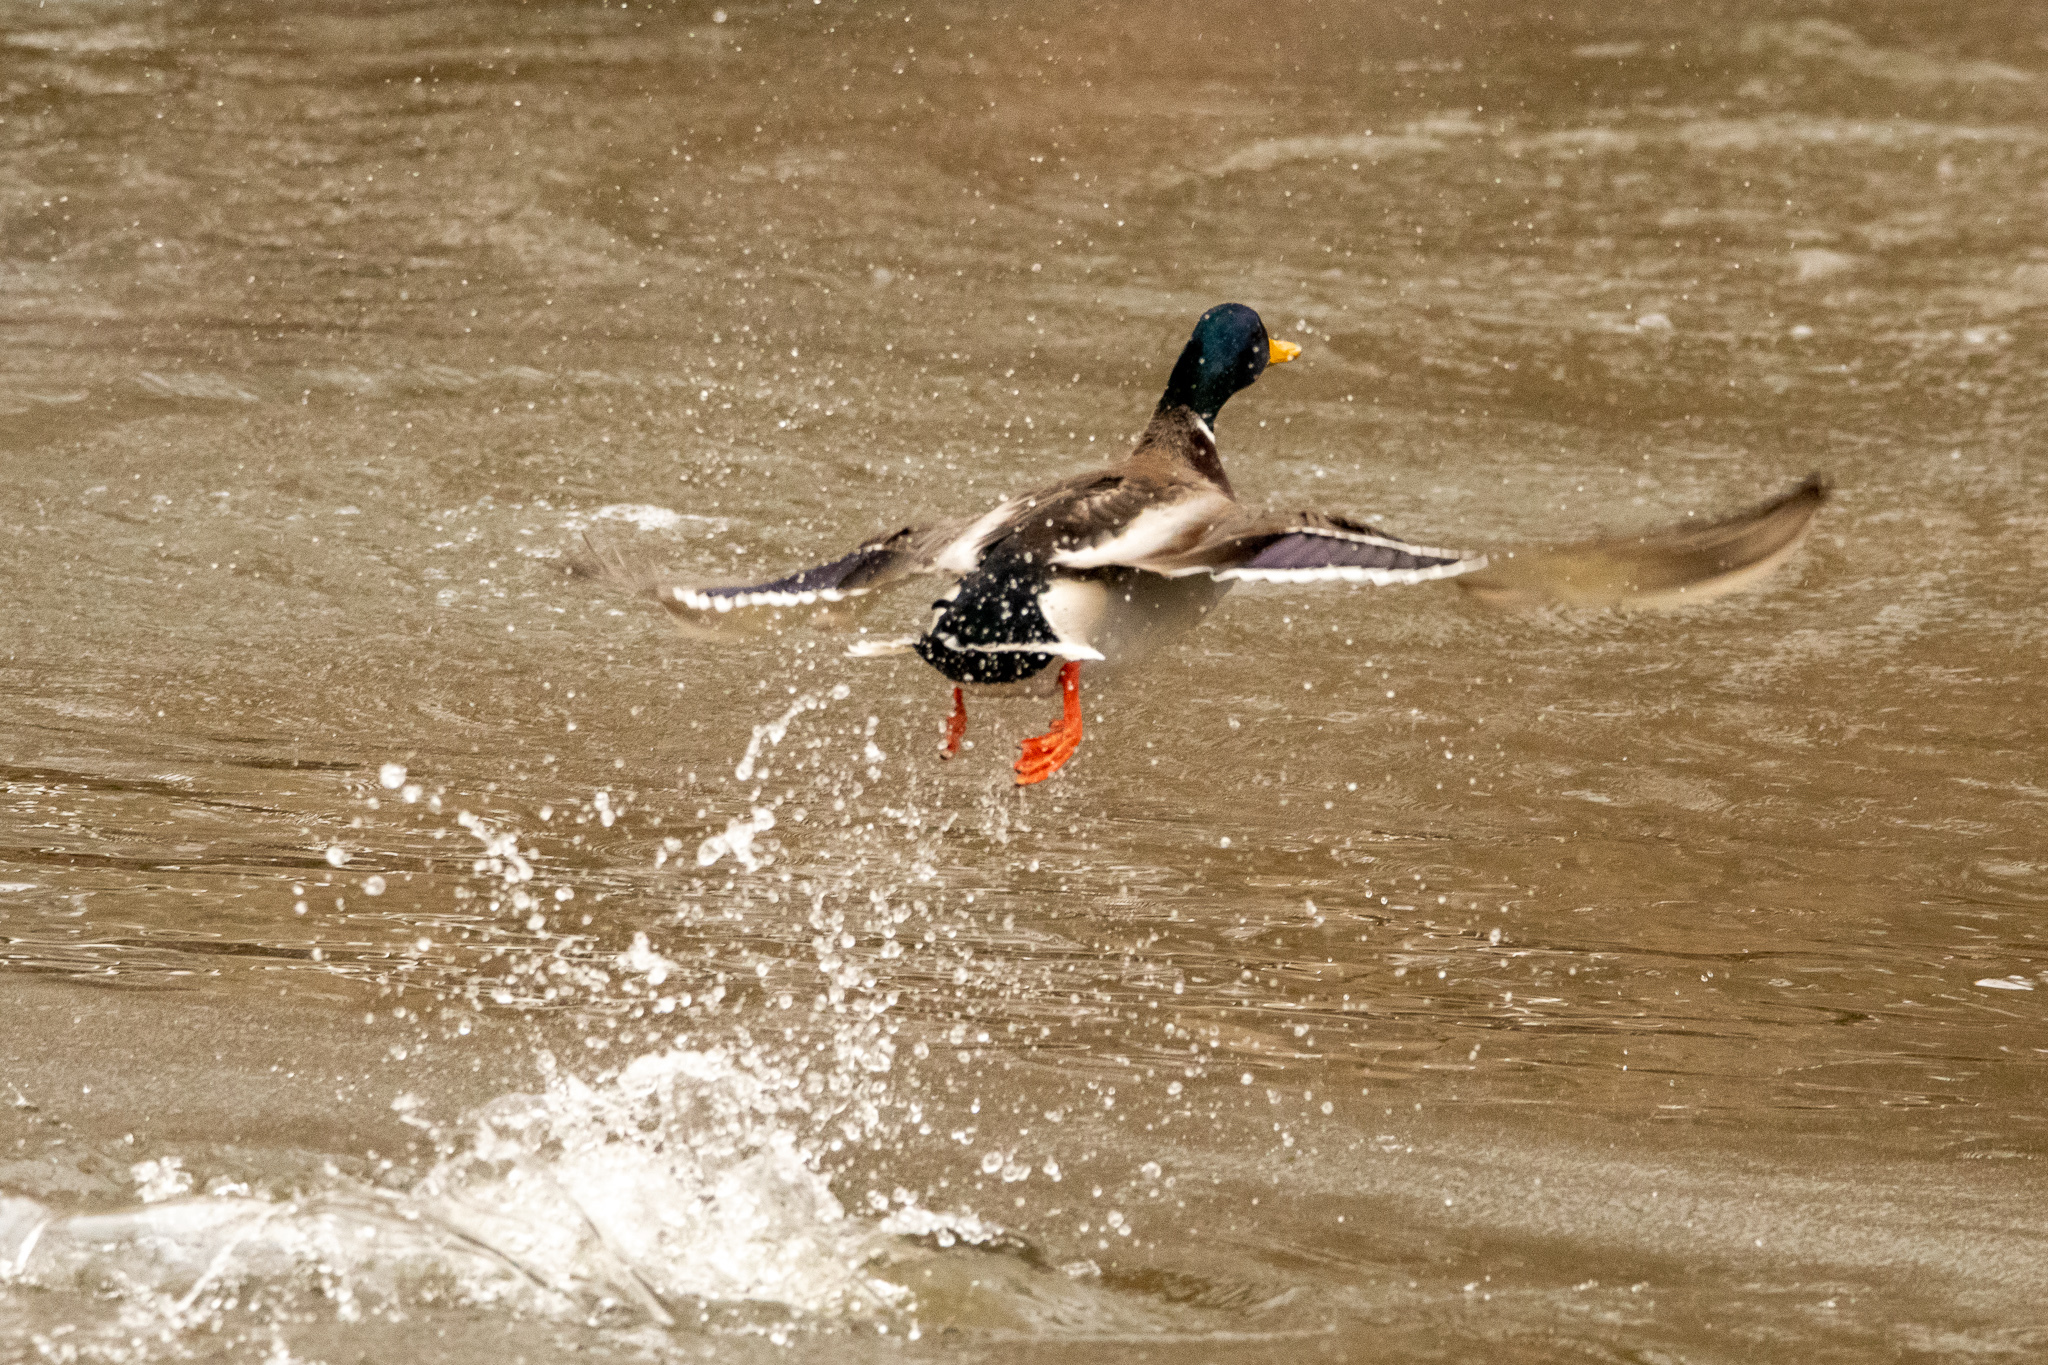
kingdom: Animalia
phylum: Chordata
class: Aves
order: Anseriformes
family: Anatidae
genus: Anas
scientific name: Anas platyrhynchos
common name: Mallard
